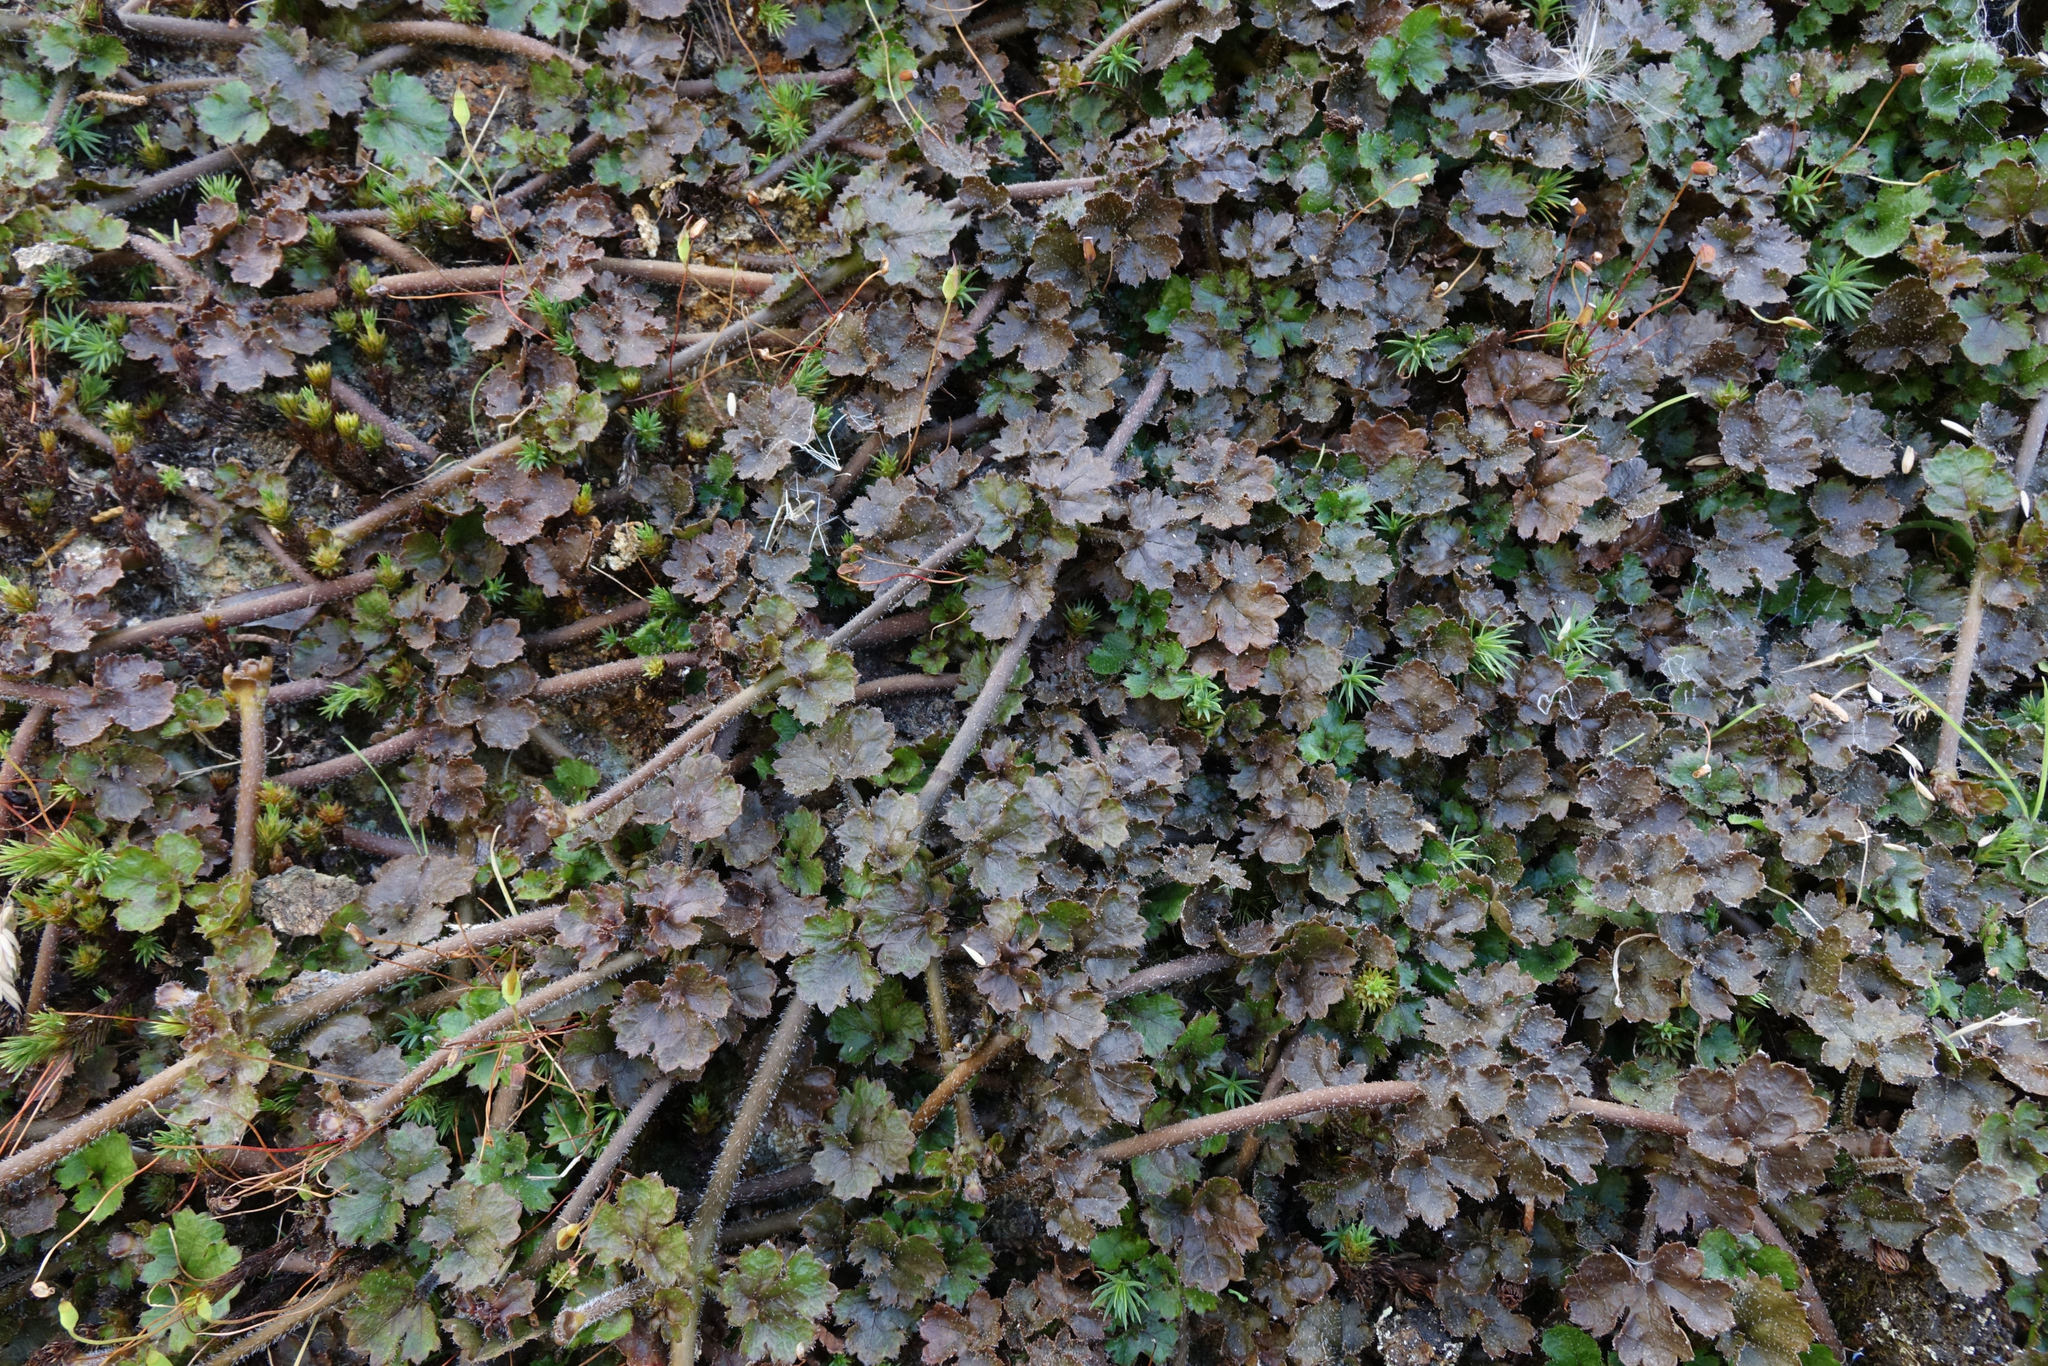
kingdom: Plantae
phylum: Tracheophyta
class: Magnoliopsida
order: Gunnerales
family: Gunneraceae
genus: Gunnera
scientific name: Gunnera monoica
